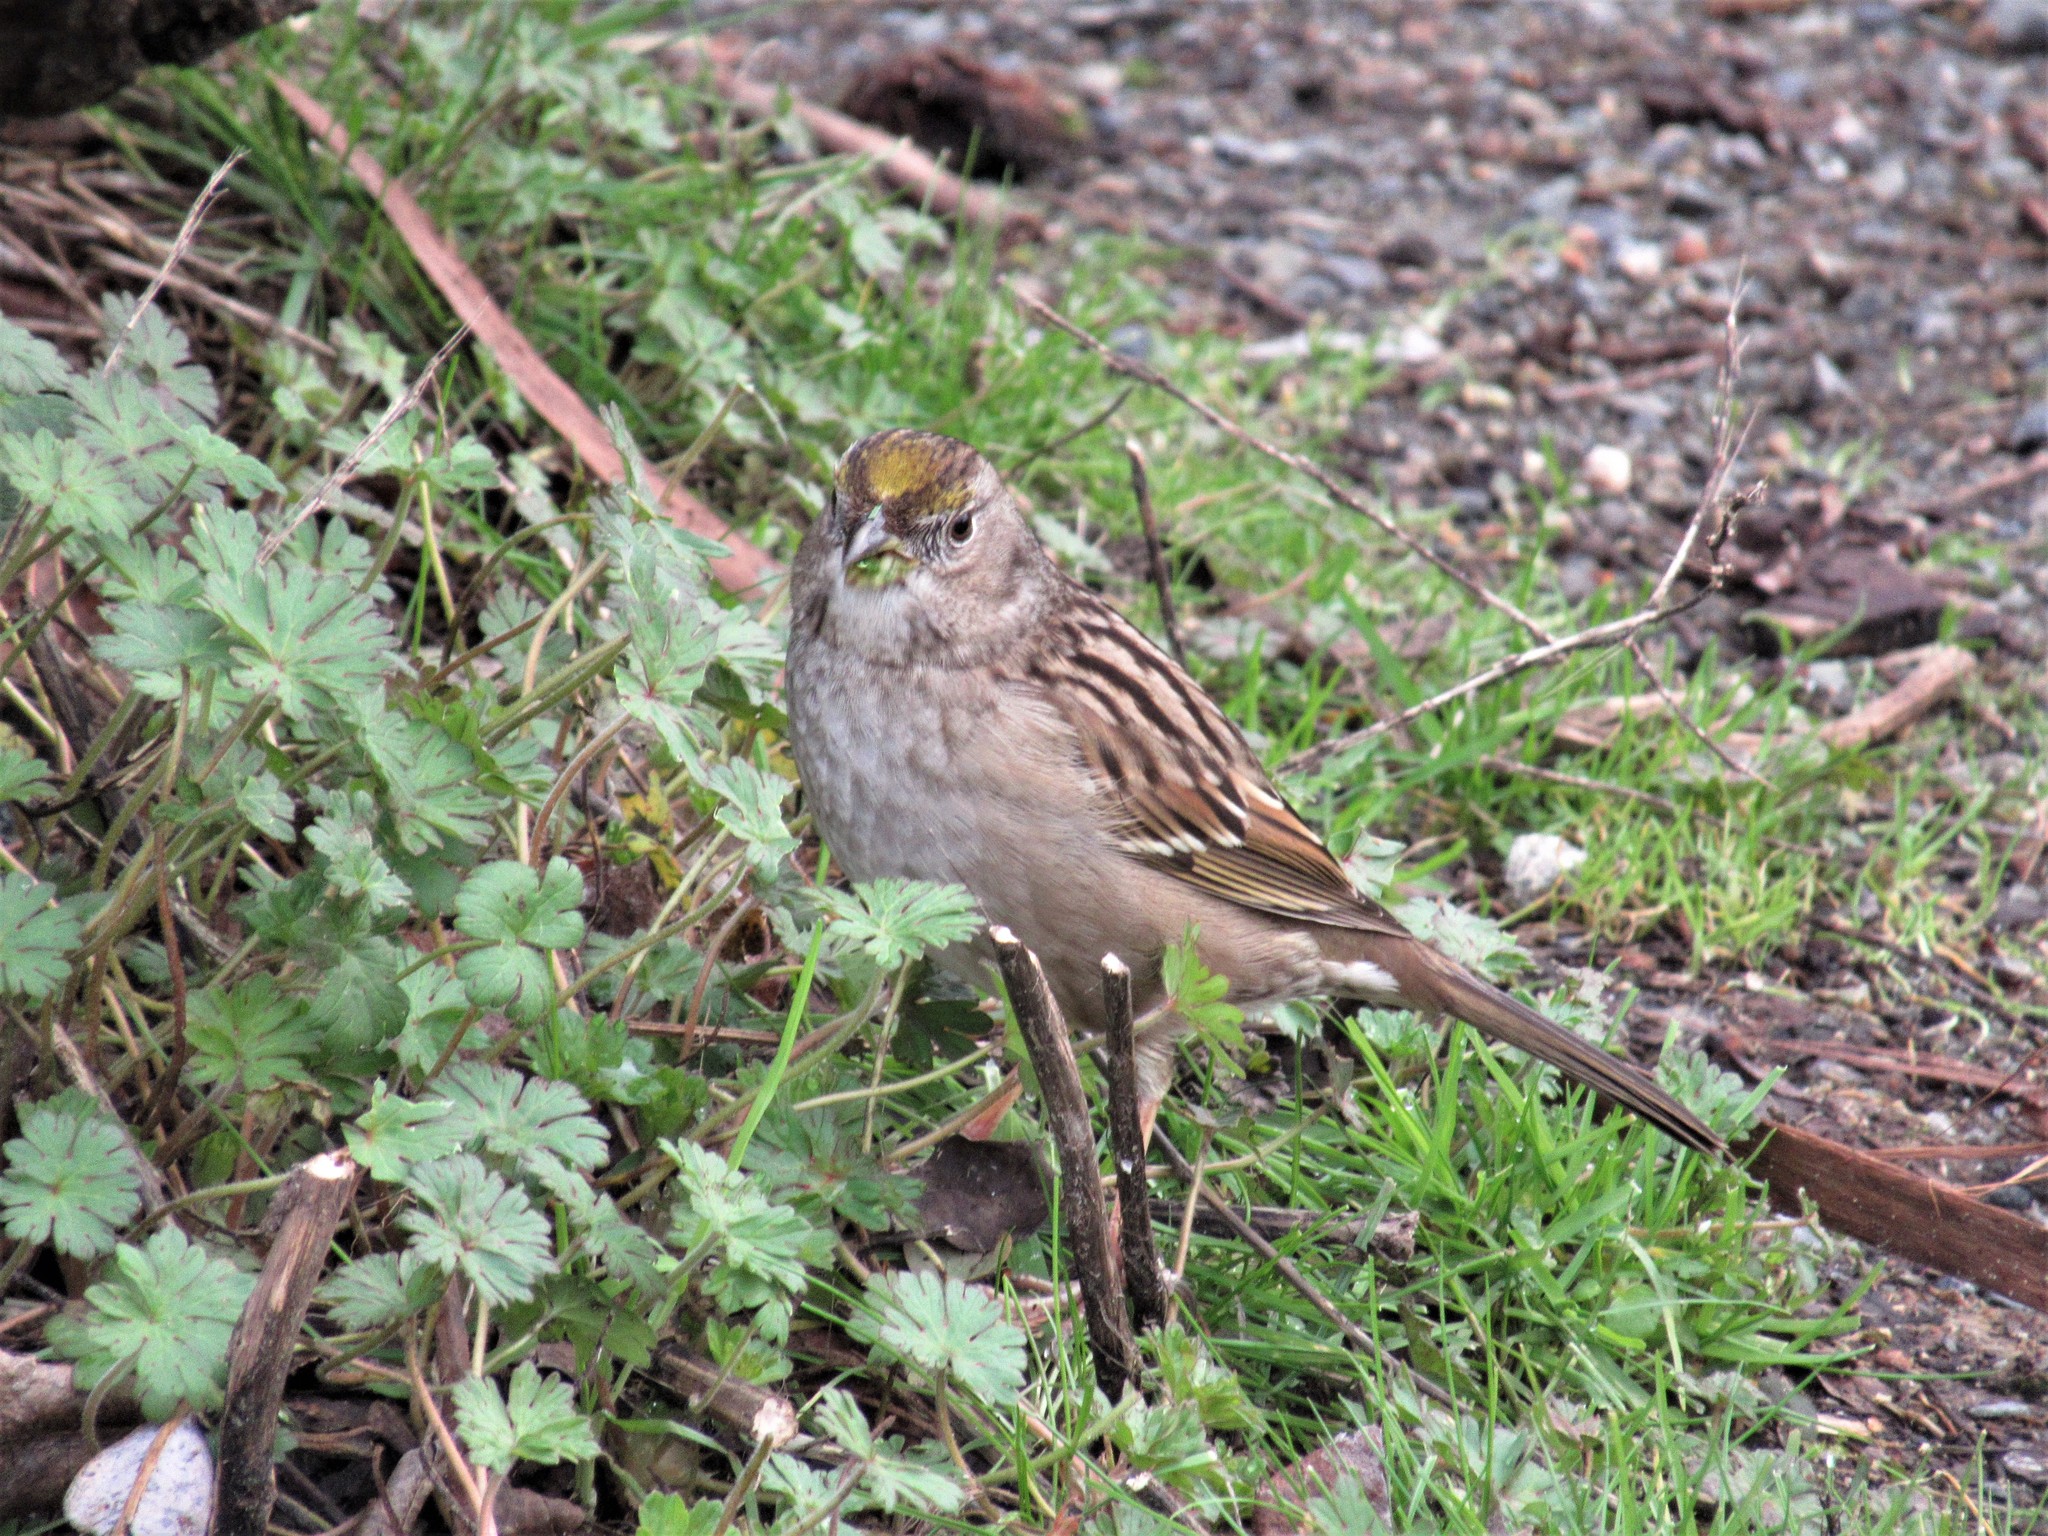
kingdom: Animalia
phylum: Chordata
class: Aves
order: Passeriformes
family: Passerellidae
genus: Zonotrichia
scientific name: Zonotrichia atricapilla
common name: Golden-crowned sparrow
